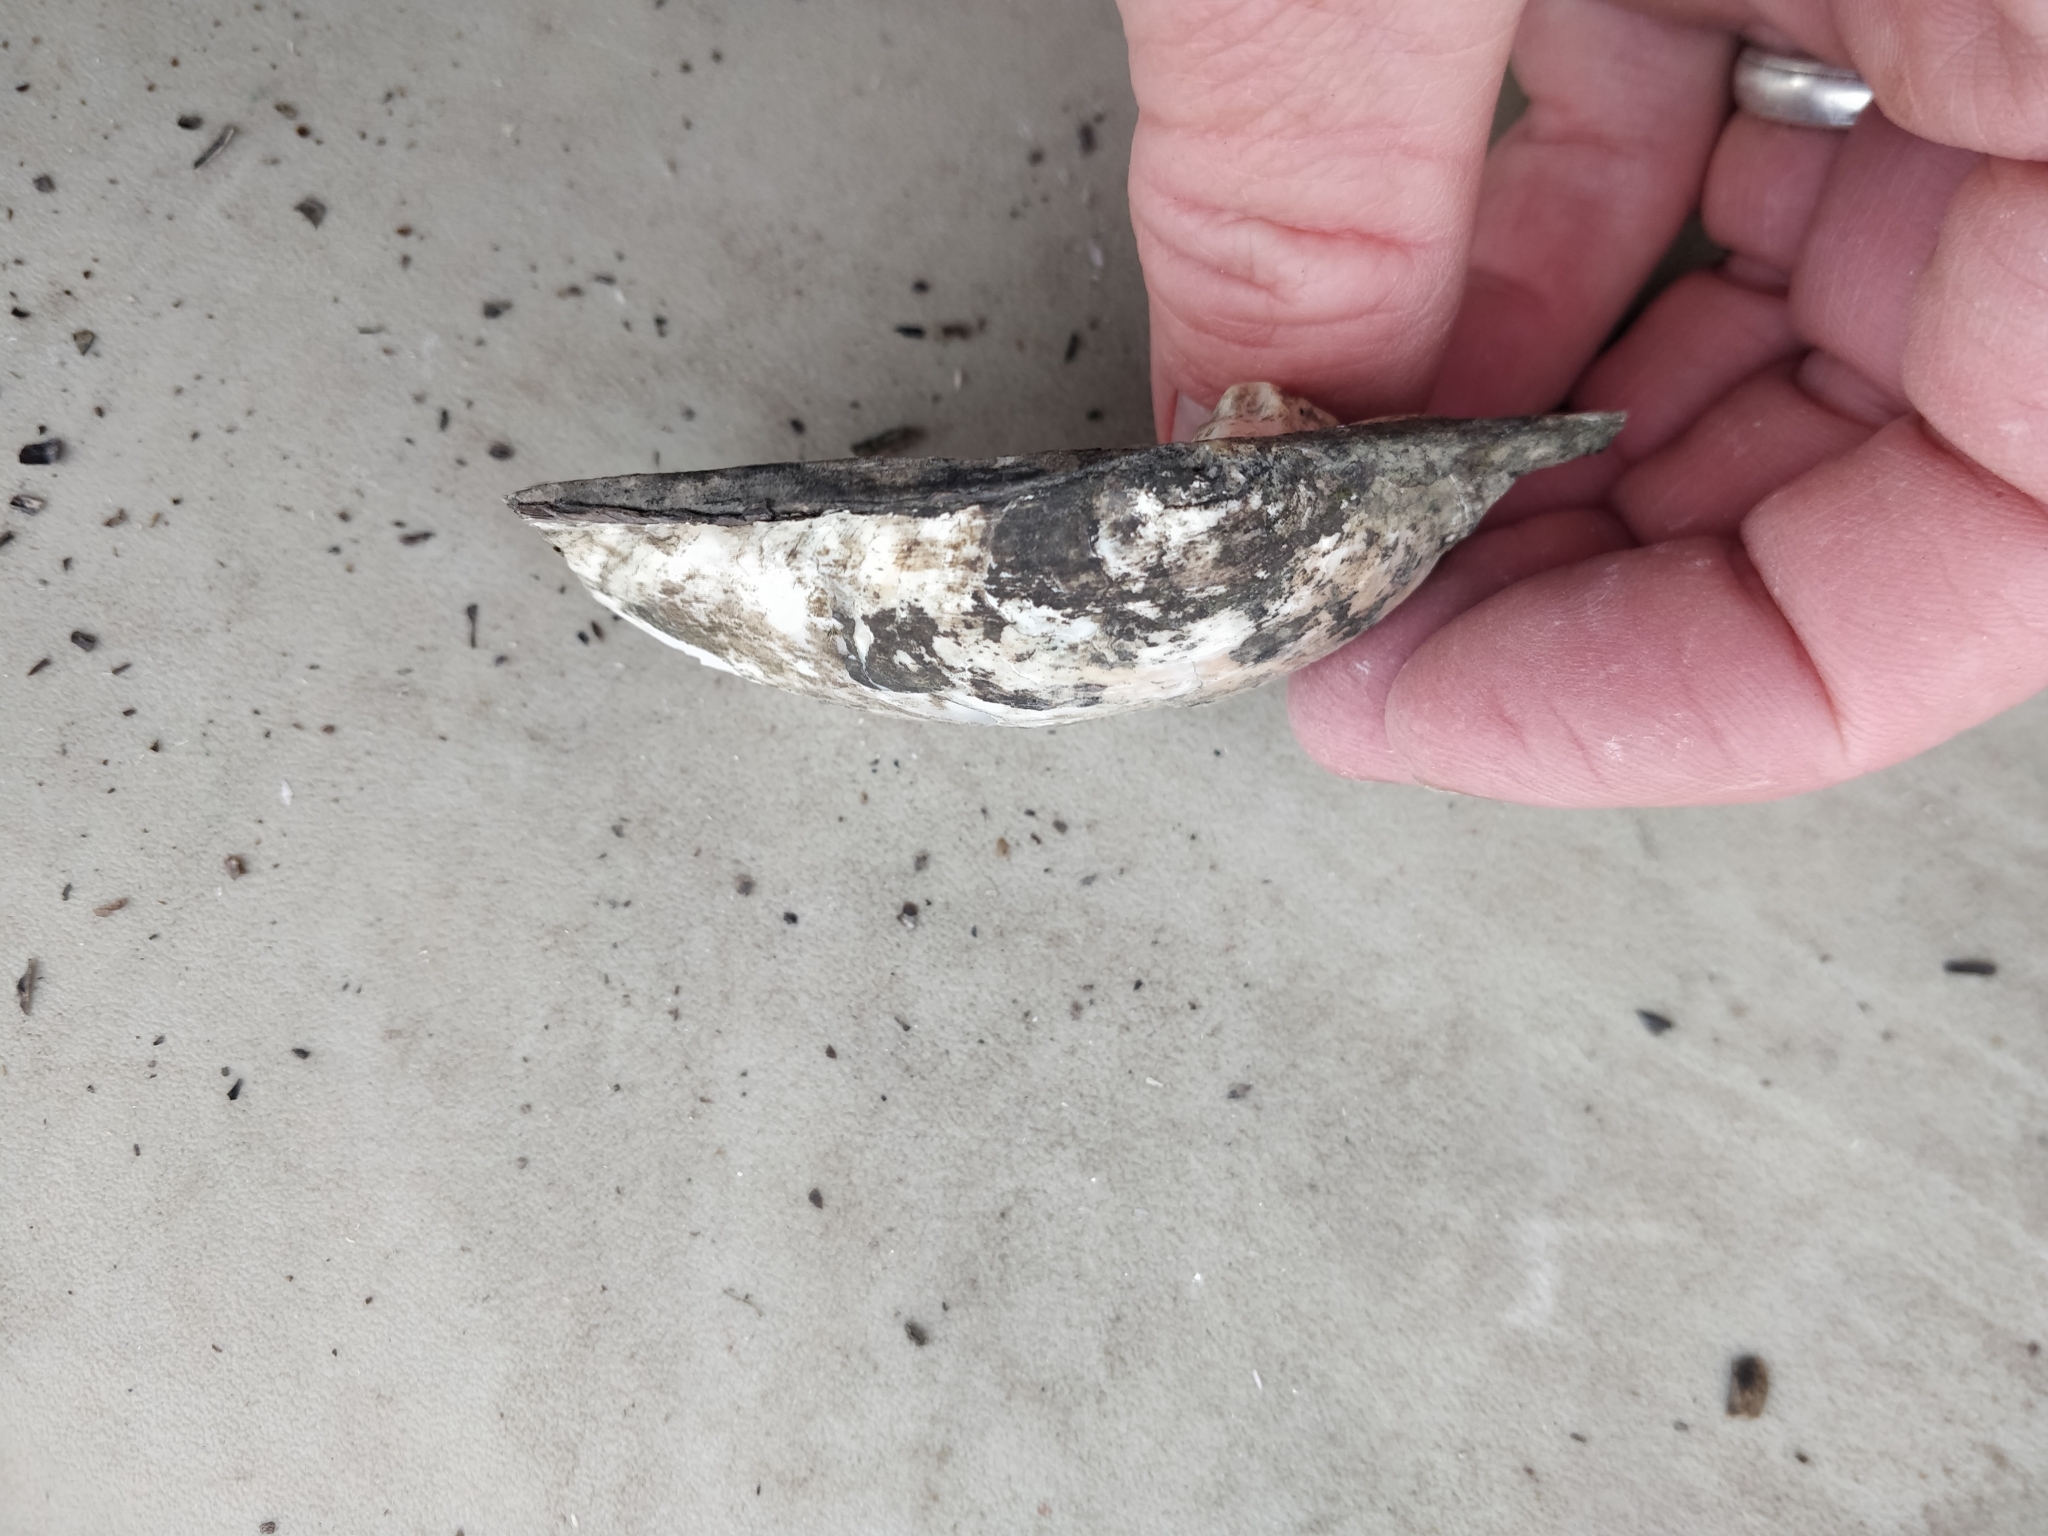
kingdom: Animalia
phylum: Mollusca
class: Bivalvia
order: Unionida
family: Unionidae
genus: Lasmigona
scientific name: Lasmigona complanata
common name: White heelsplitter
